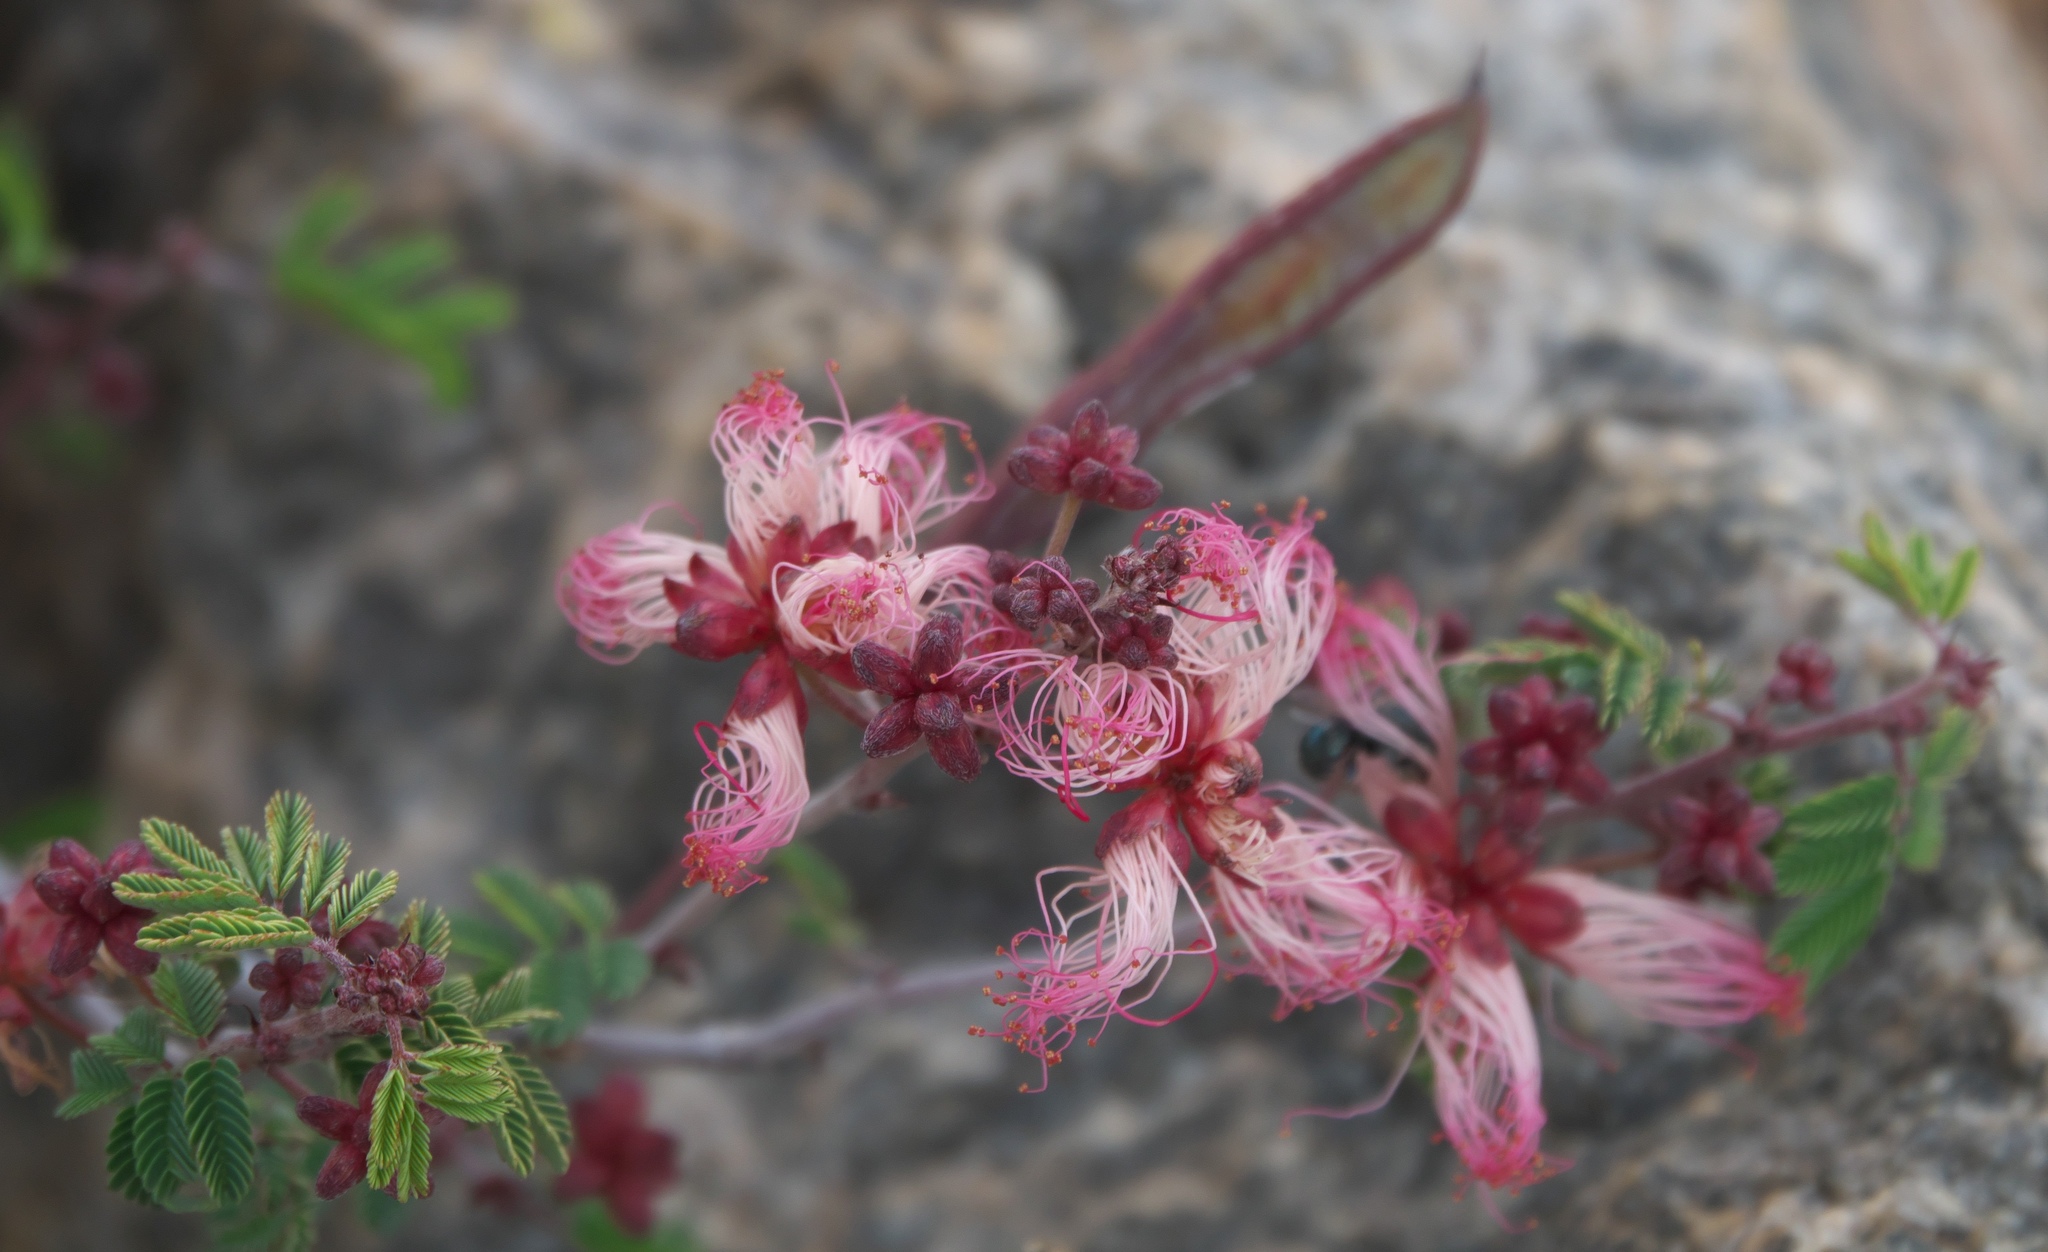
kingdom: Plantae
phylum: Tracheophyta
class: Magnoliopsida
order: Fabales
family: Fabaceae
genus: Calliandra
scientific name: Calliandra eriophylla
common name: Fairy-duster
